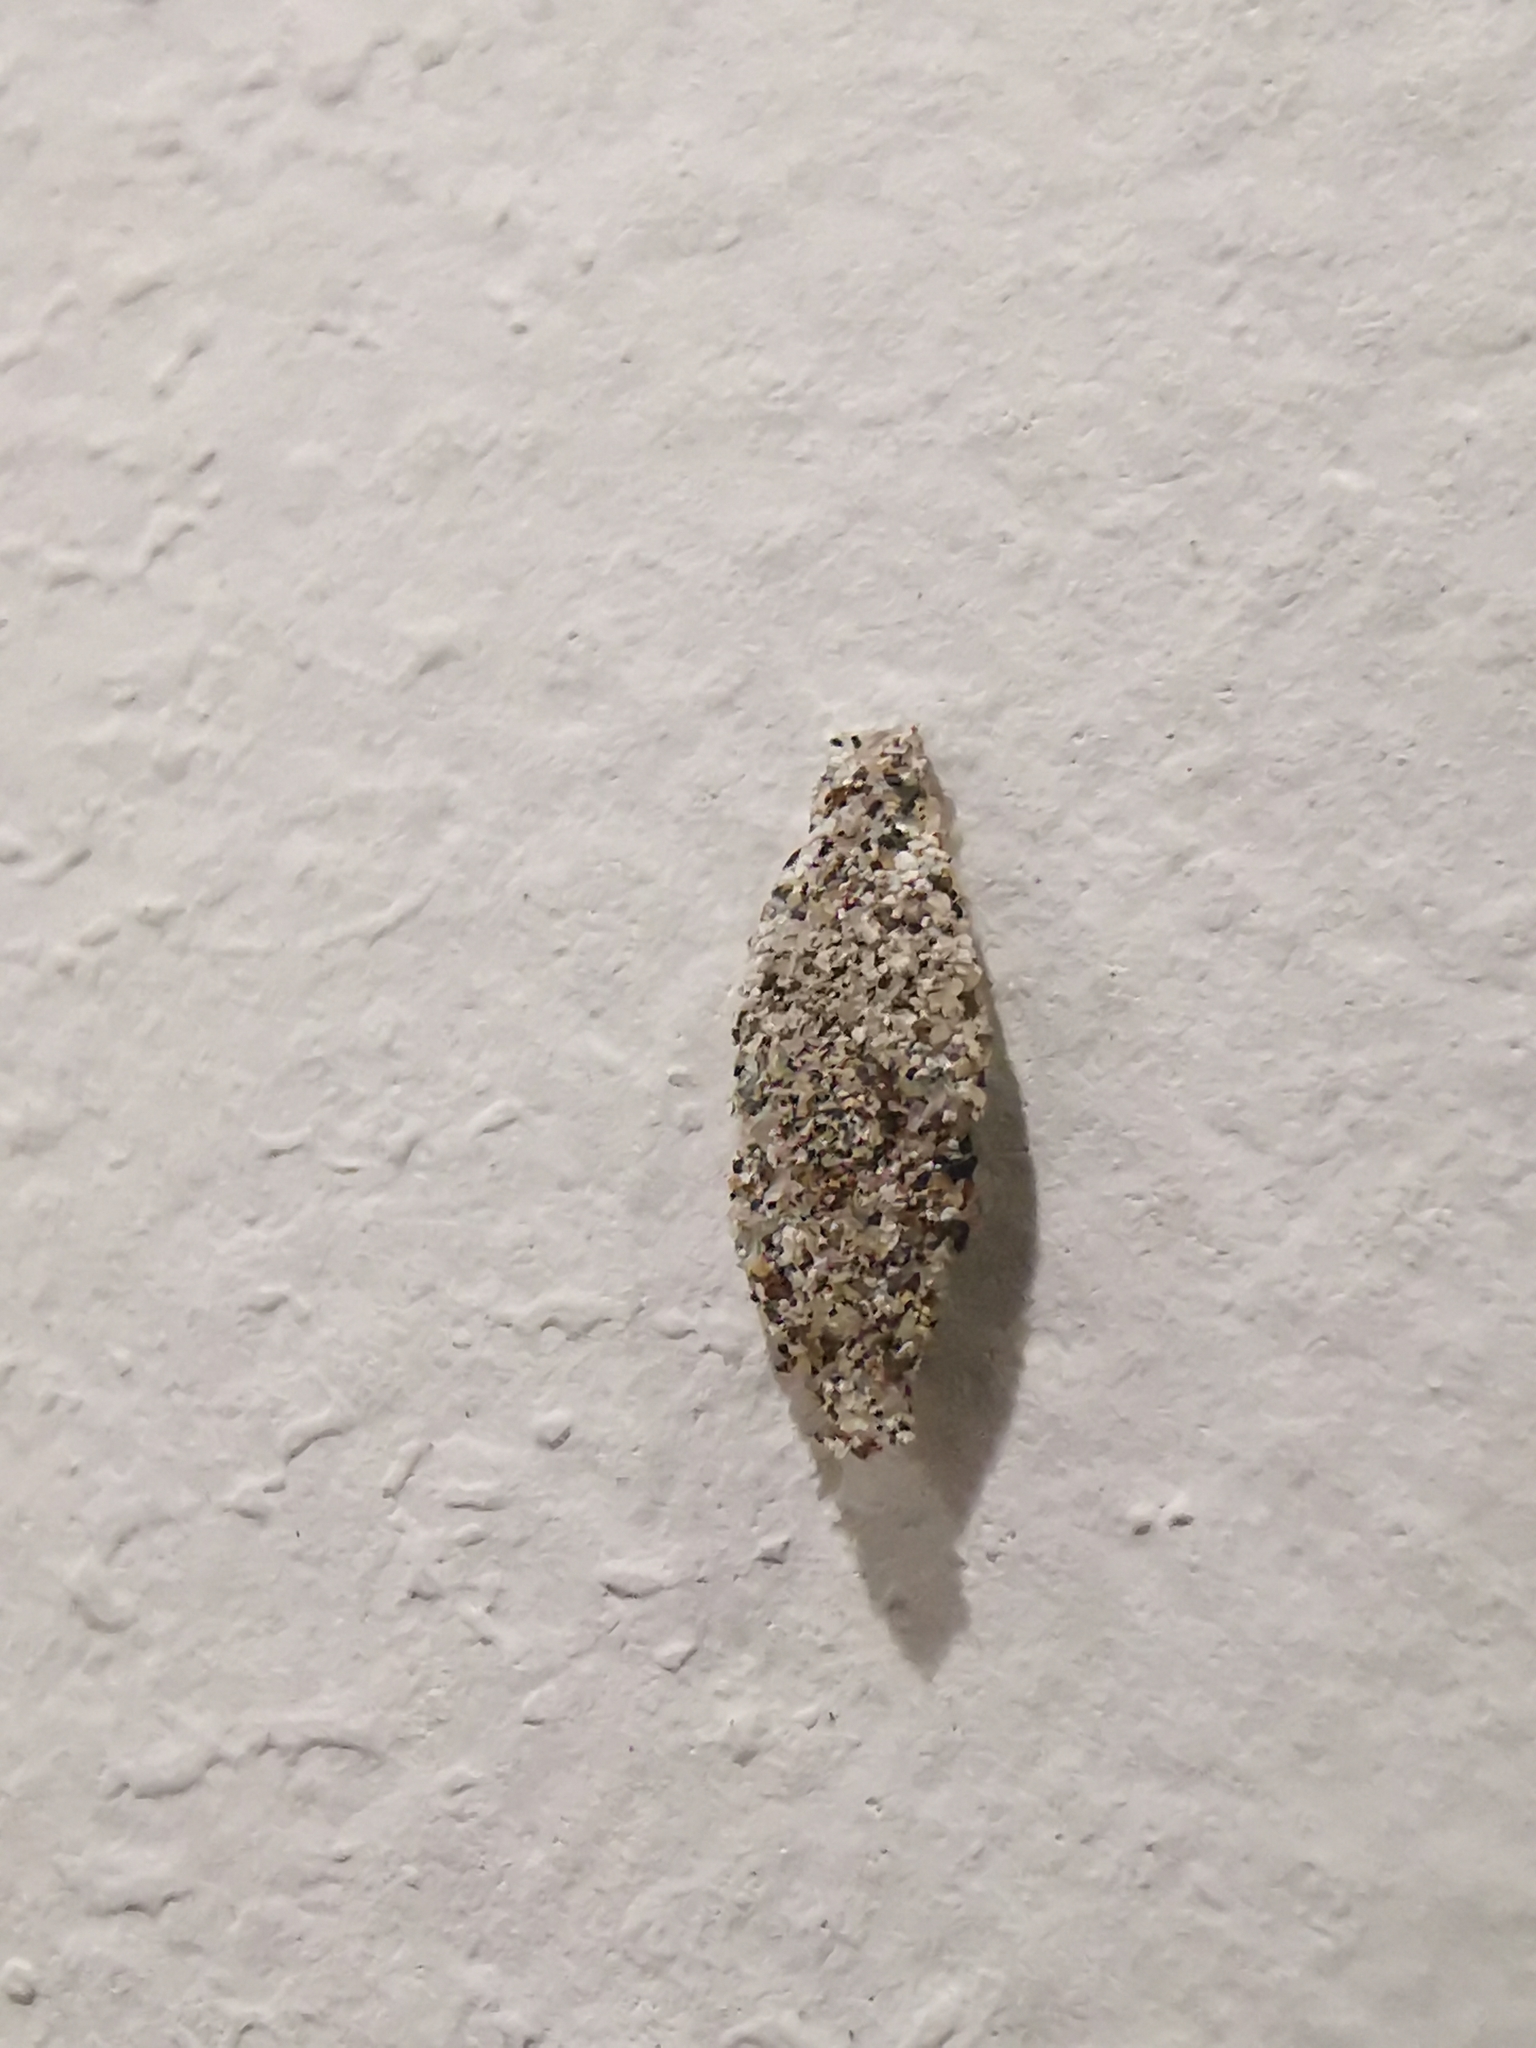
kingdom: Animalia
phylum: Arthropoda
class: Insecta
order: Lepidoptera
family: Tineidae
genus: Phereoeca
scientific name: Phereoeca uterella
